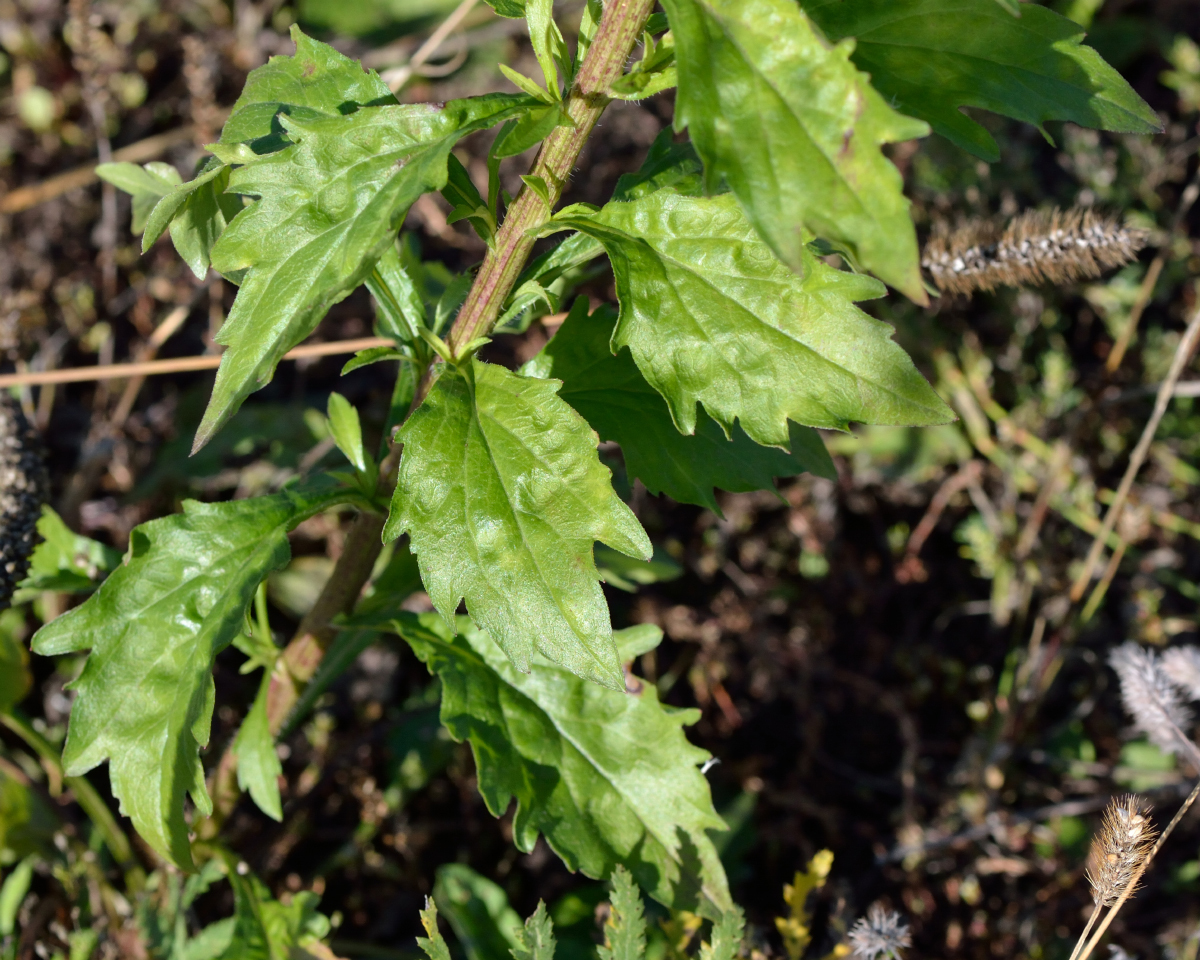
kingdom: Plantae
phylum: Tracheophyta
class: Magnoliopsida
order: Asterales
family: Asteraceae
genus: Erigeron
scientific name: Erigeron annuus
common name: Tall fleabane
